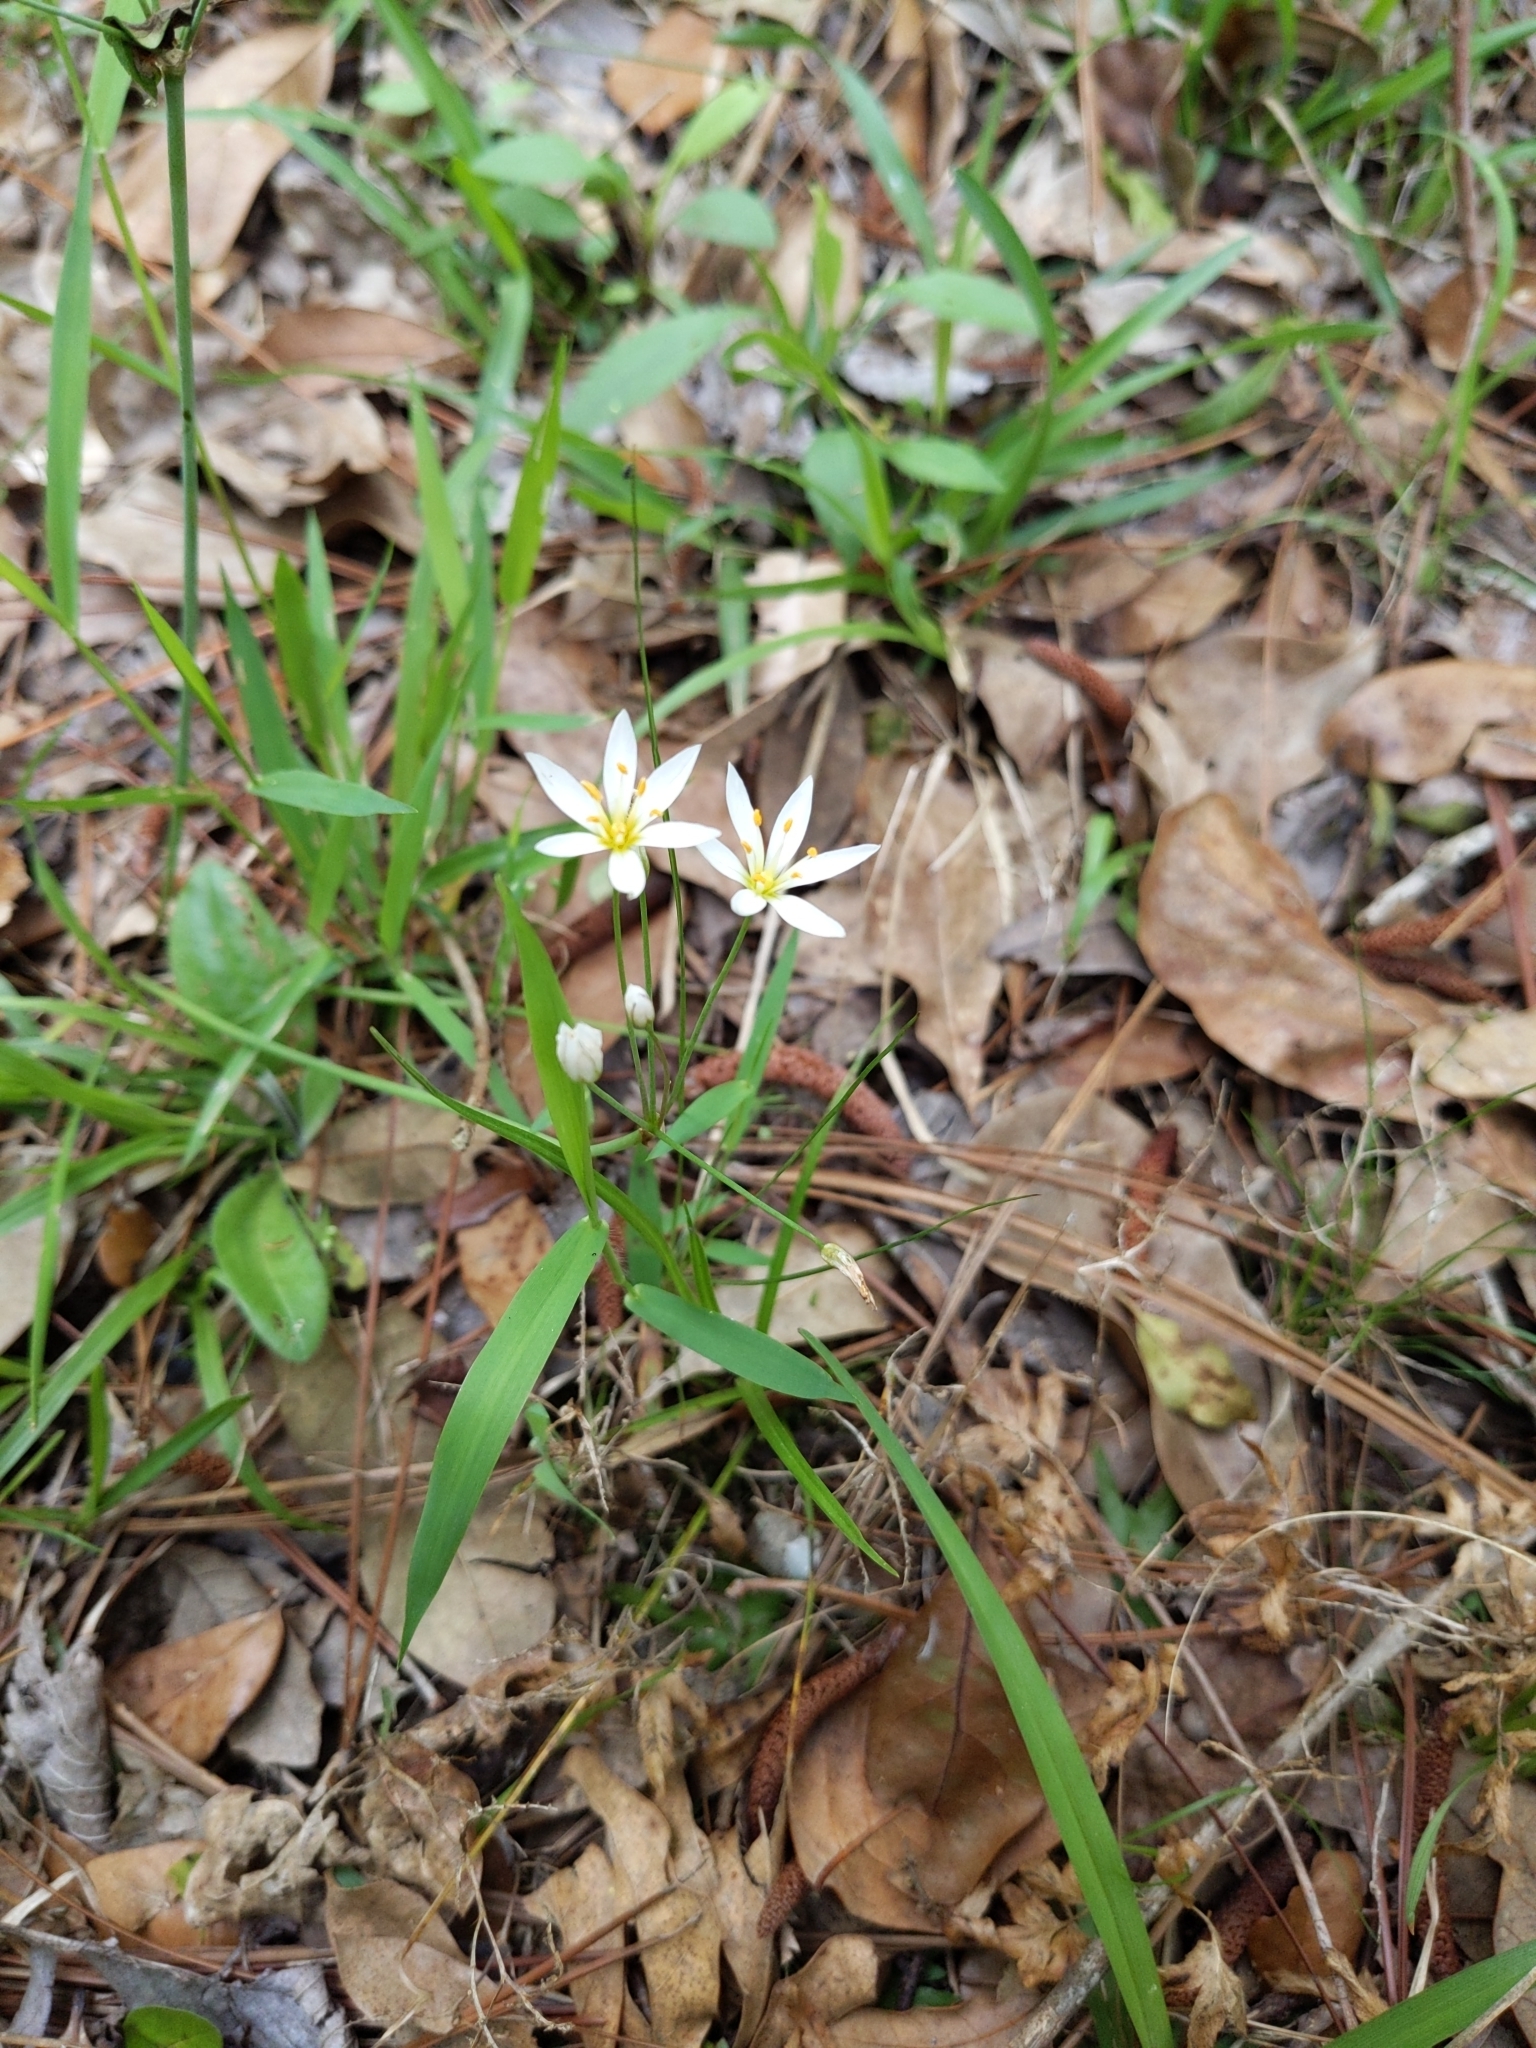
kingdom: Plantae
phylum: Tracheophyta
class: Liliopsida
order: Asparagales
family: Amaryllidaceae
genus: Nothoscordum
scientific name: Nothoscordum bivalve
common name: Crow-poison
